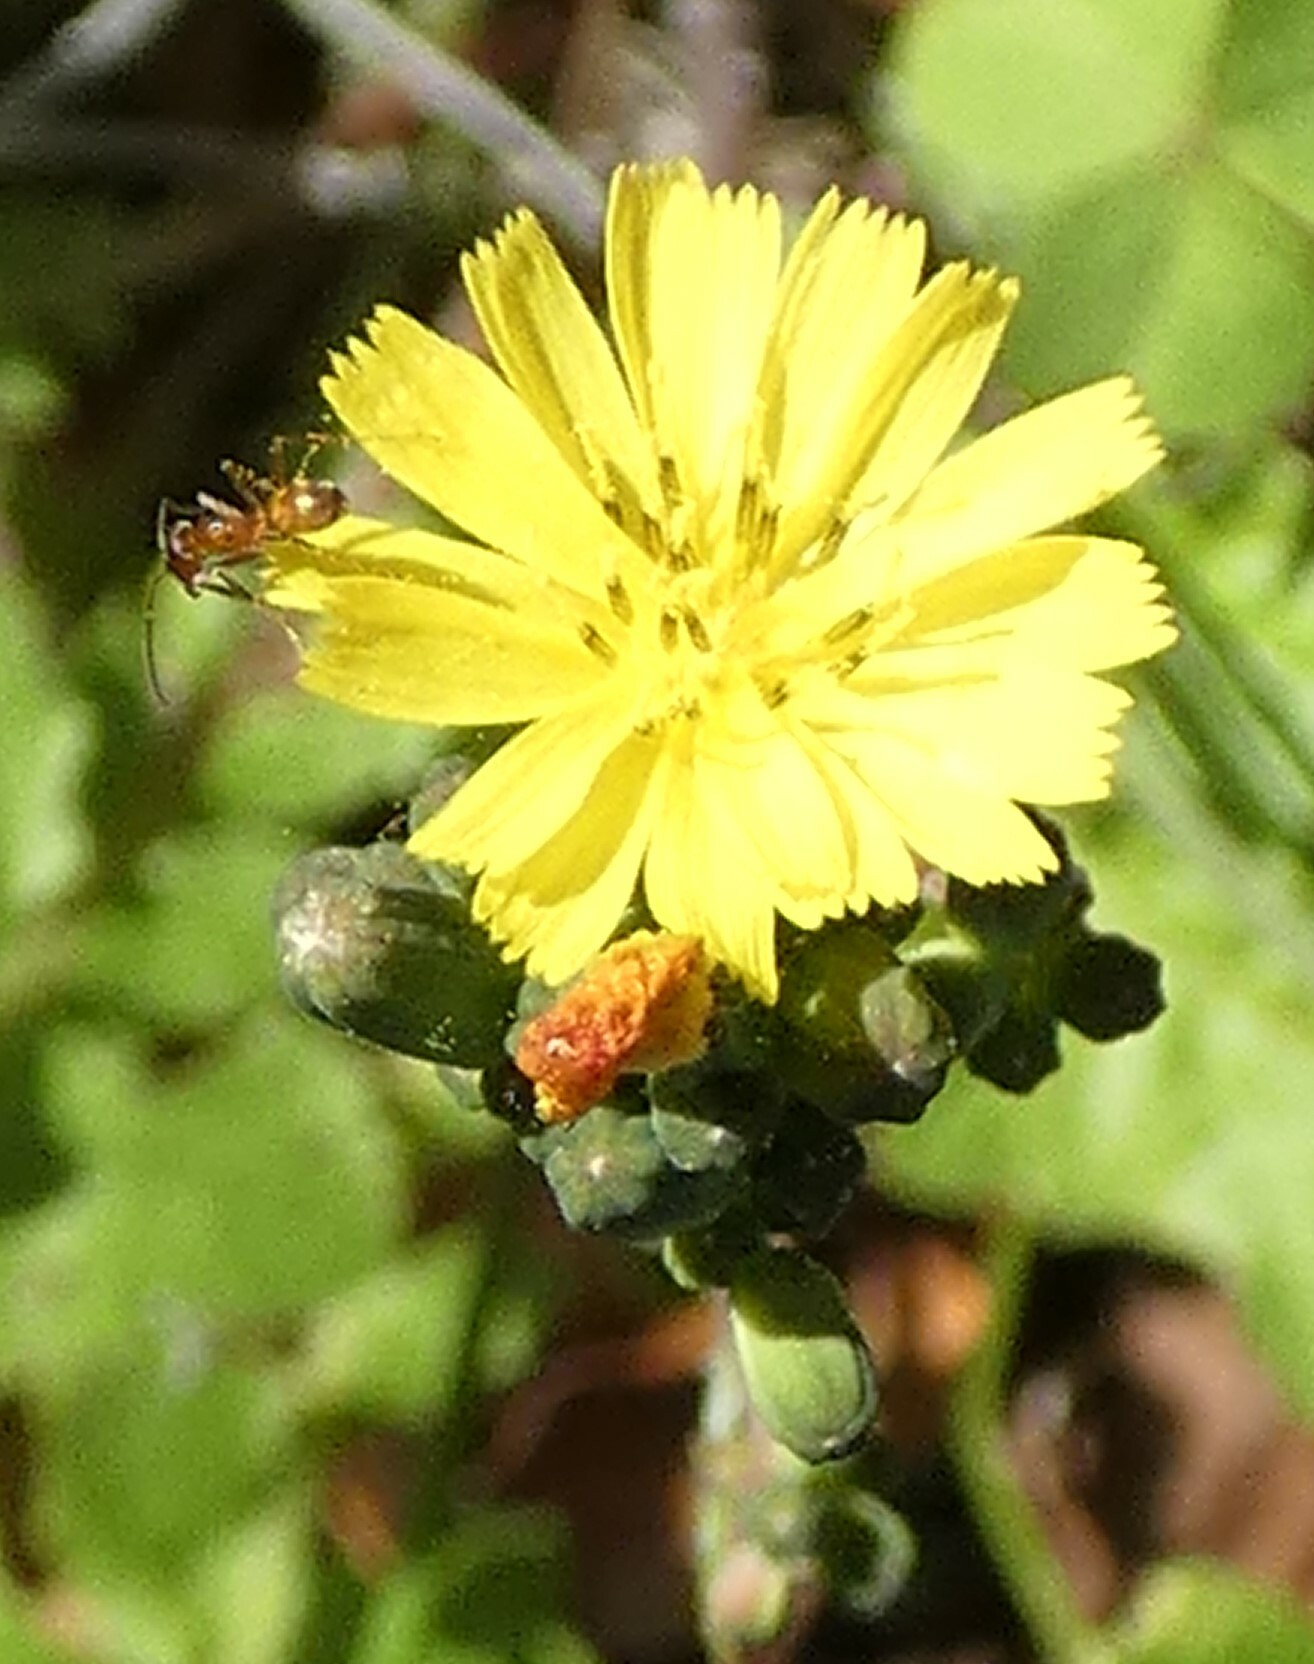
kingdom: Plantae
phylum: Tracheophyta
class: Magnoliopsida
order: Asterales
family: Asteraceae
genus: Youngia
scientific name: Youngia japonica
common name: Oriental false hawksbeard
